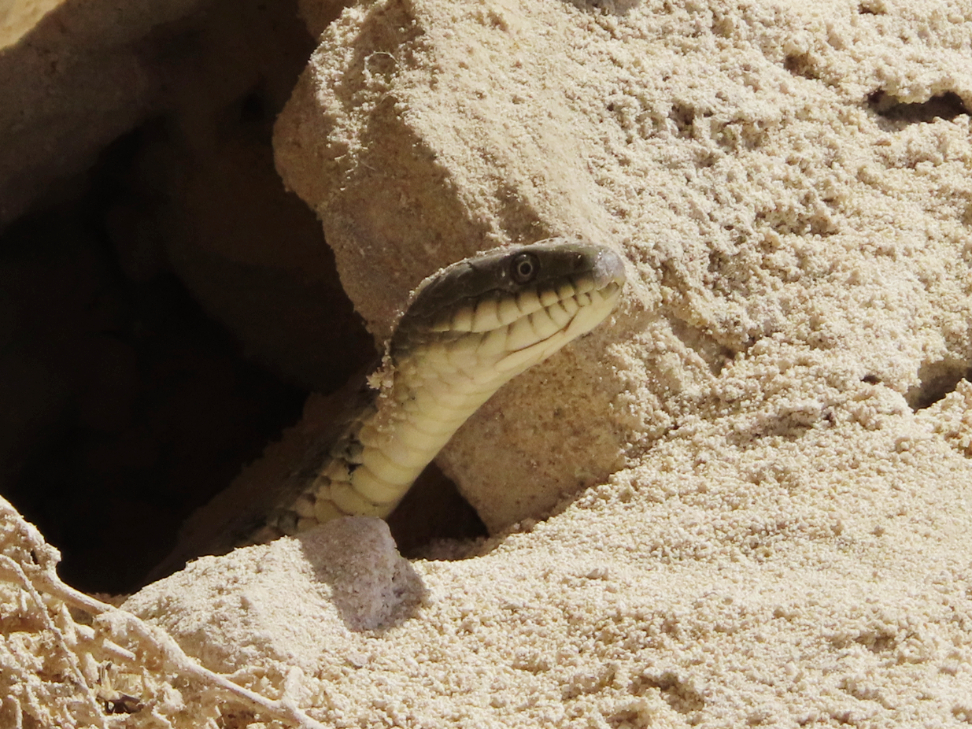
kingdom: Animalia
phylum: Chordata
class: Squamata
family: Colubridae
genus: Natrix
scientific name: Natrix tessellata
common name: Dice snake
